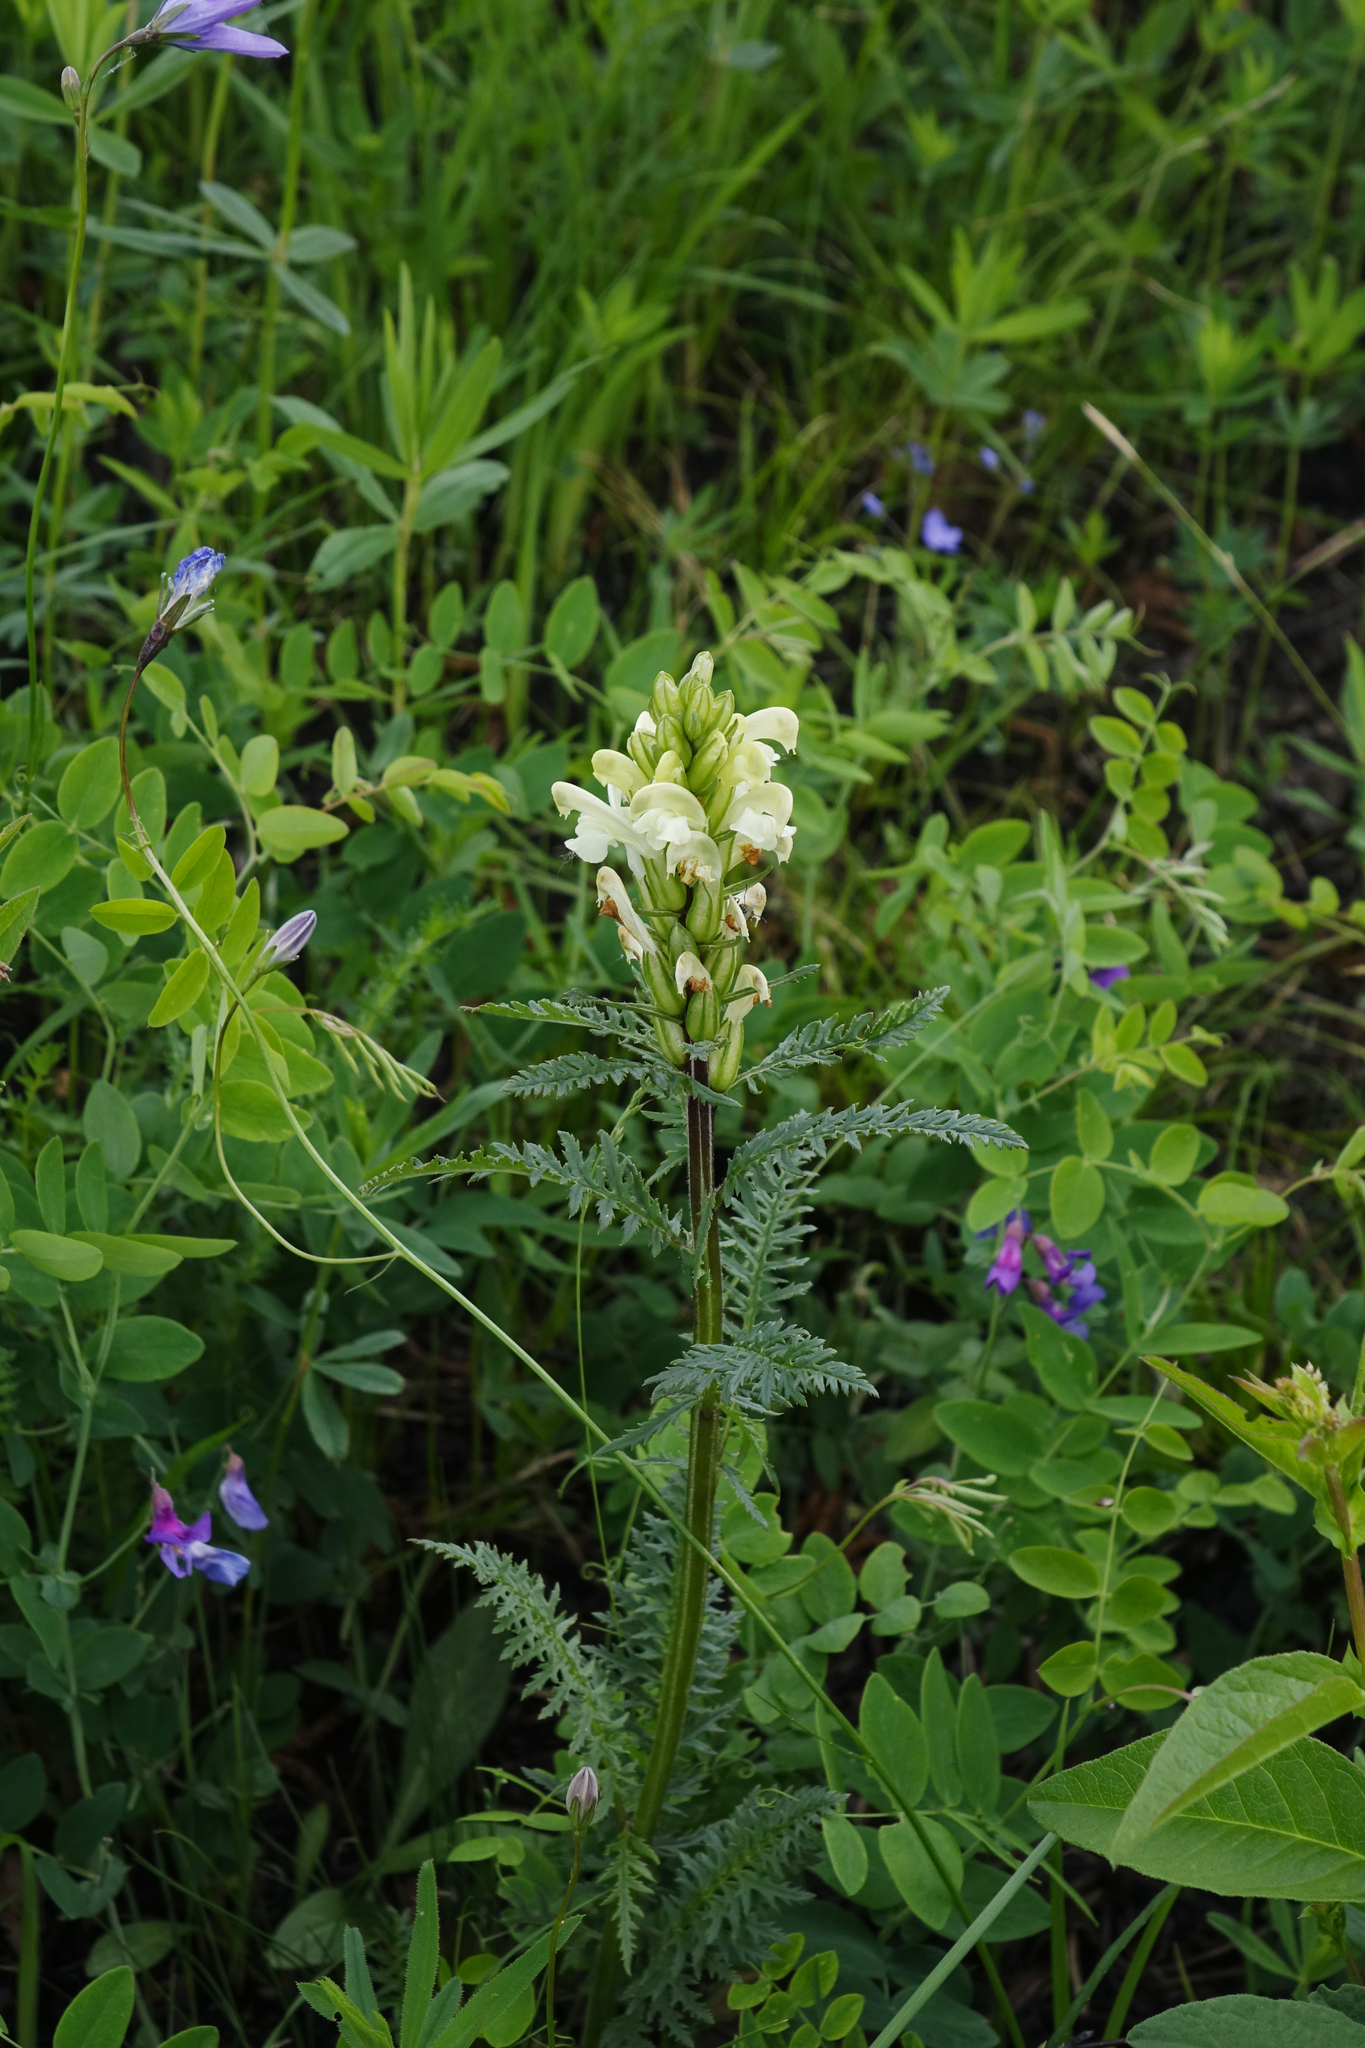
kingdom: Plantae
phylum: Tracheophyta
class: Magnoliopsida
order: Lamiales
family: Orobanchaceae
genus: Pedicularis
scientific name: Pedicularis sibirica
